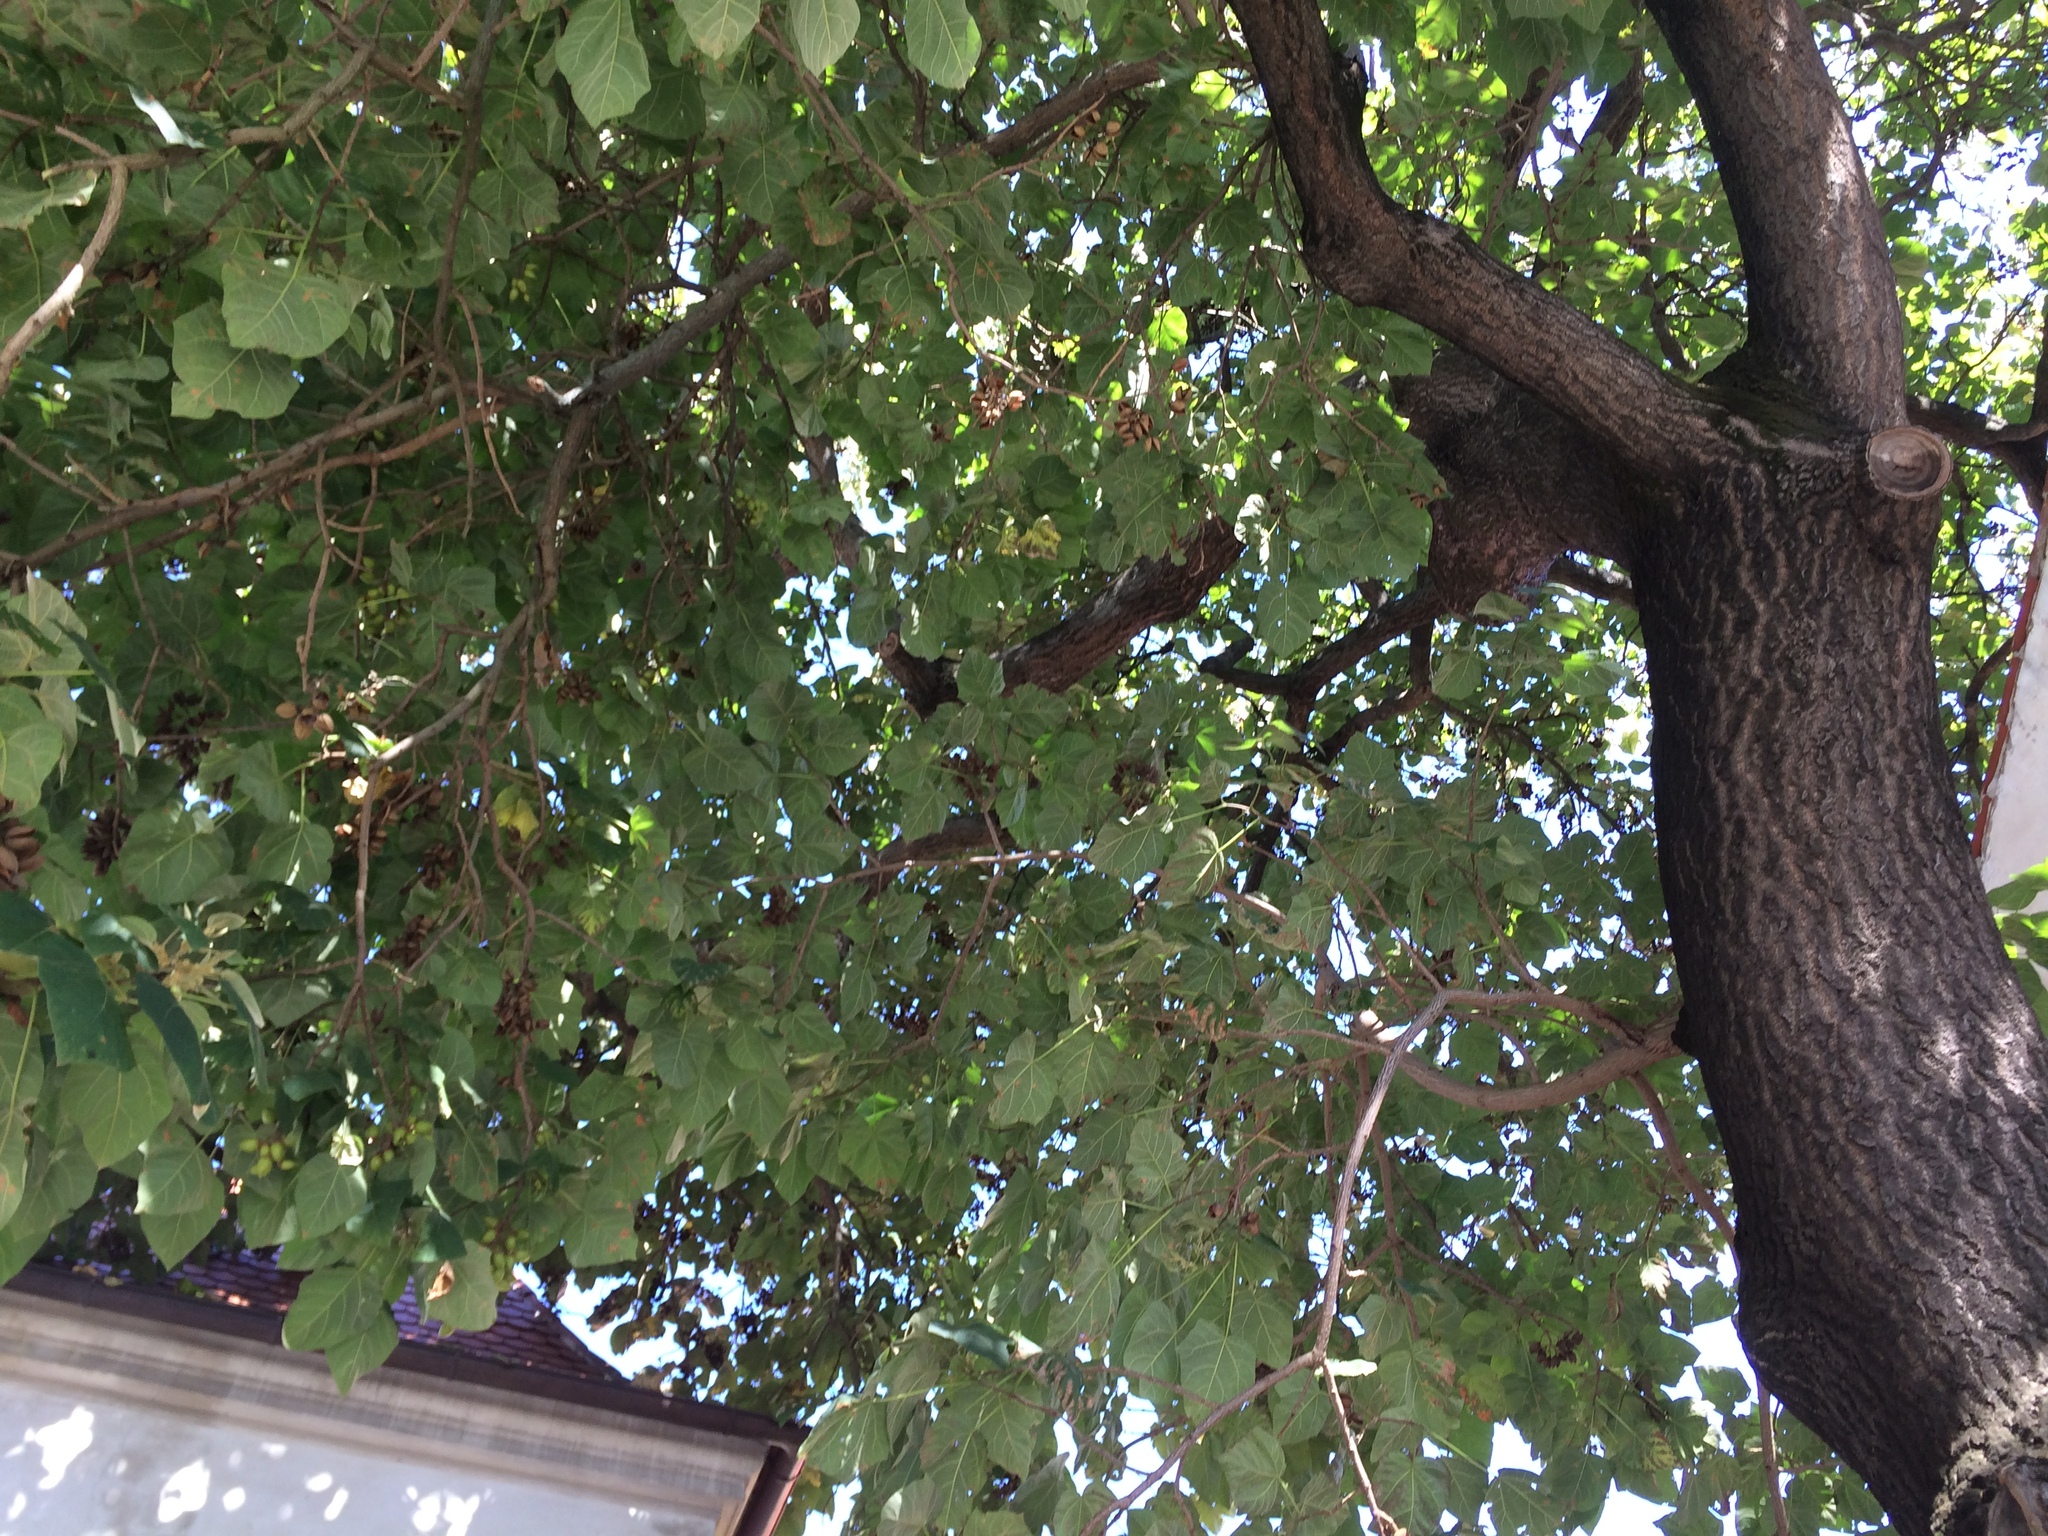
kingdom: Plantae
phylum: Tracheophyta
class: Magnoliopsida
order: Lamiales
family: Paulowniaceae
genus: Paulownia
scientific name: Paulownia tomentosa
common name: Foxglove-tree
